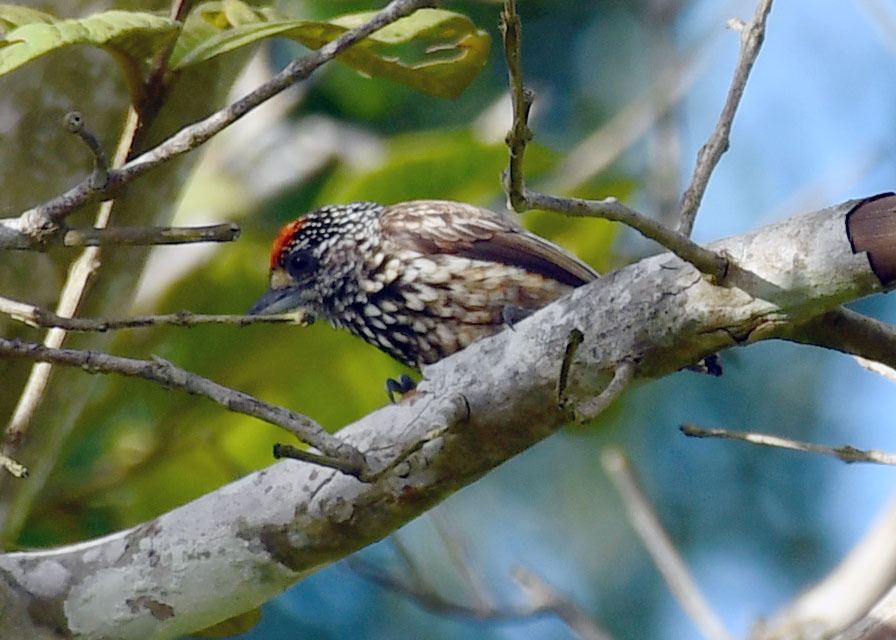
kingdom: Animalia
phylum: Chordata
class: Aves
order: Piciformes
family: Picidae
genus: Picumnus
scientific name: Picumnus albosquamatus
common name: White-wedged piculet
